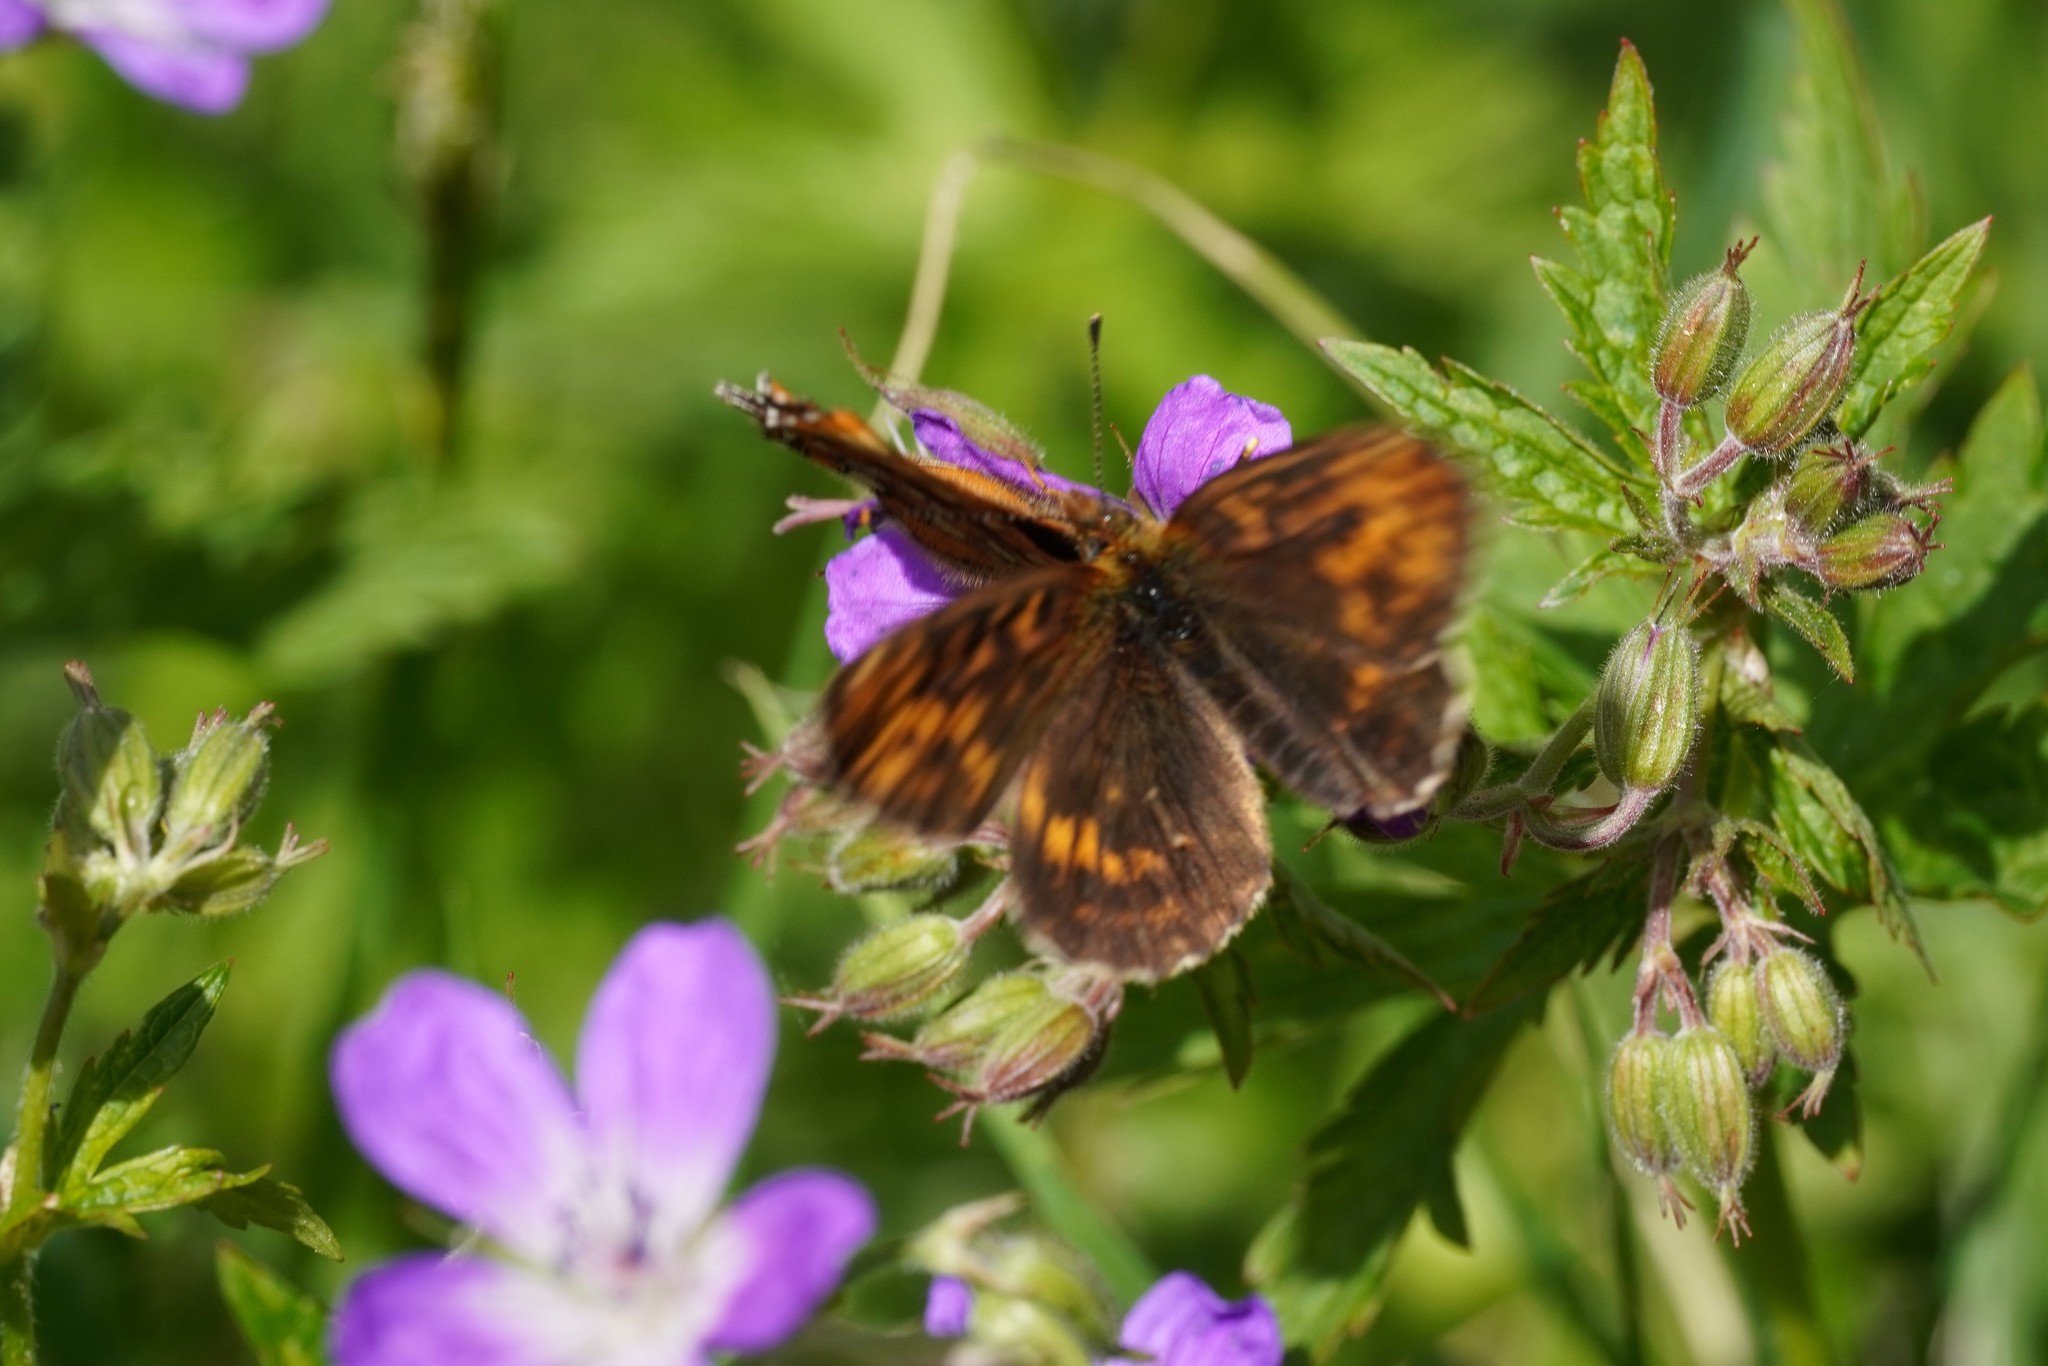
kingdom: Animalia
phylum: Arthropoda
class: Insecta
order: Lepidoptera
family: Nymphalidae
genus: Boloria
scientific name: Boloria thore
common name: Thor's fritillary
